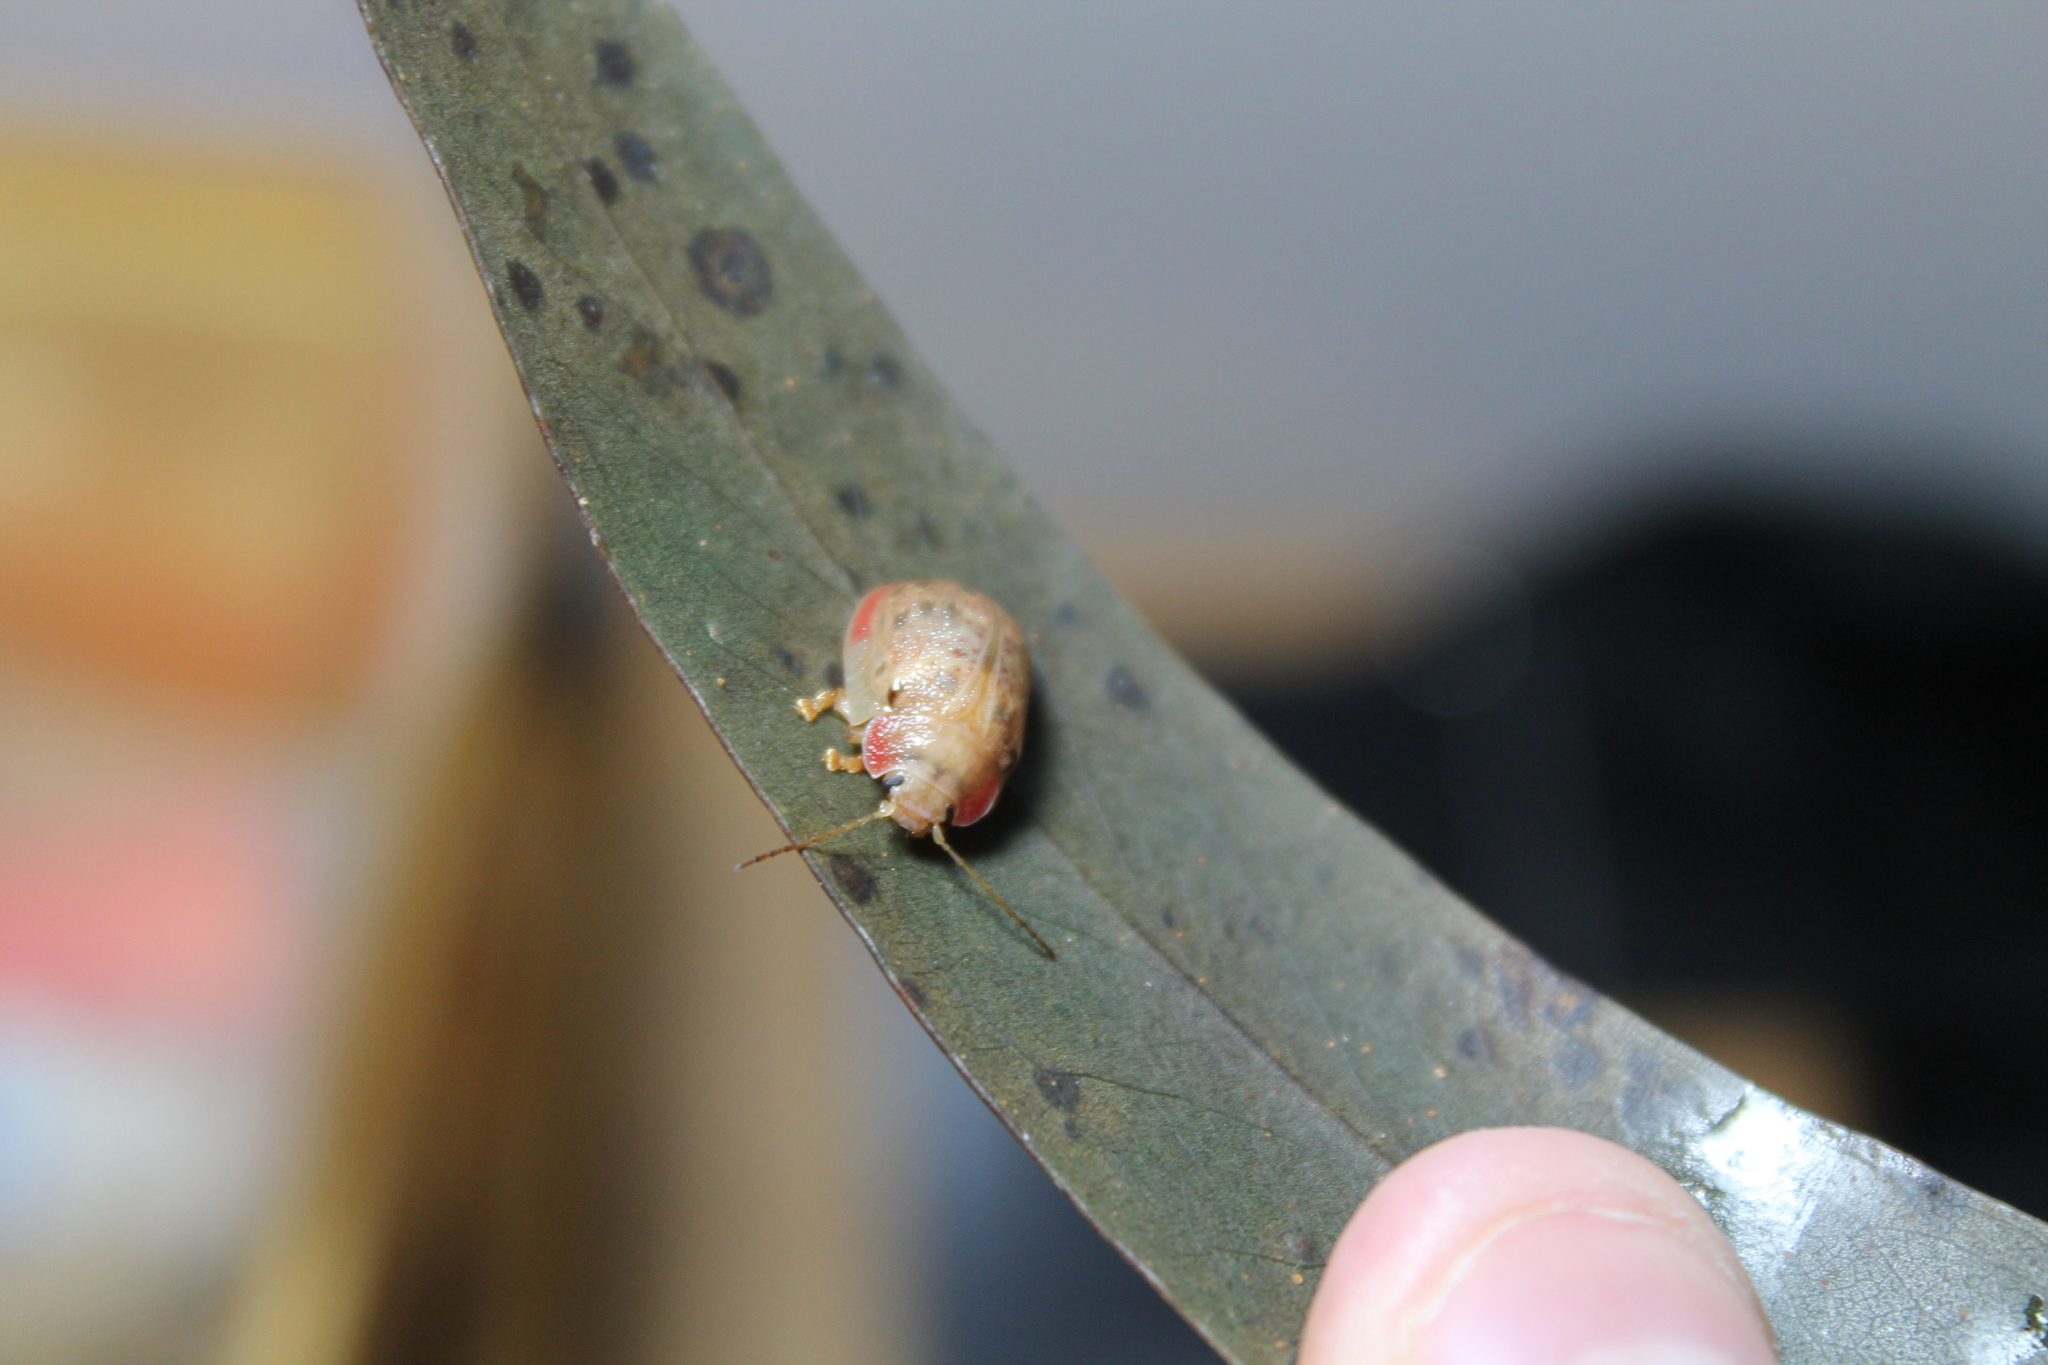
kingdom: Animalia
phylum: Arthropoda
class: Insecta
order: Coleoptera
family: Chrysomelidae
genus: Paropsis
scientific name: Paropsis charybdis
